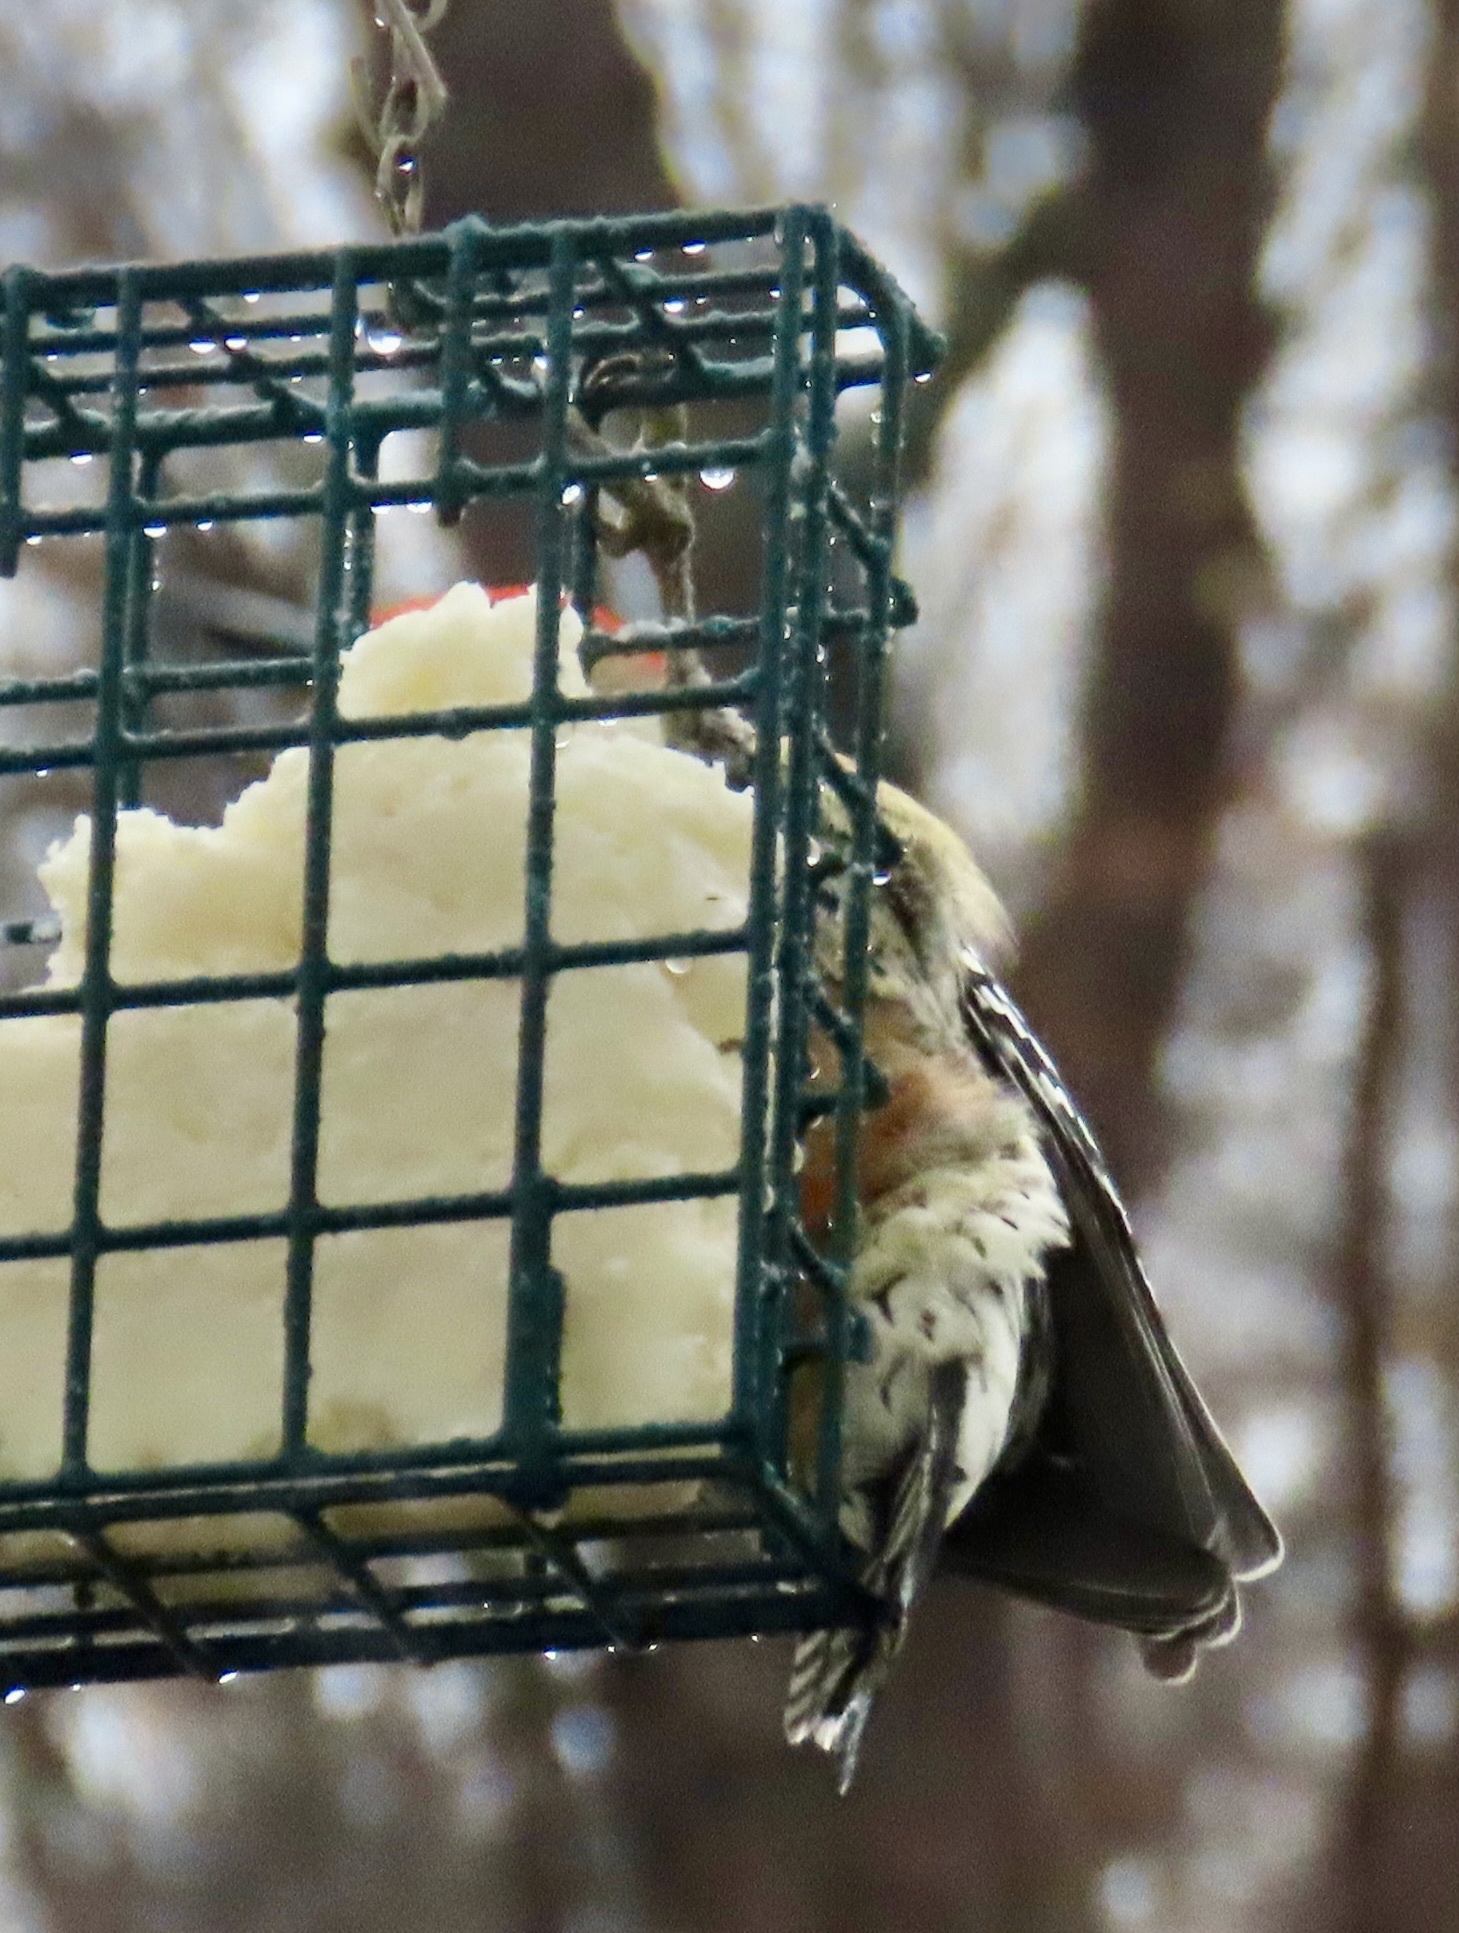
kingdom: Animalia
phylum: Chordata
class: Aves
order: Piciformes
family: Picidae
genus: Melanerpes
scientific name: Melanerpes carolinus
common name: Red-bellied woodpecker
